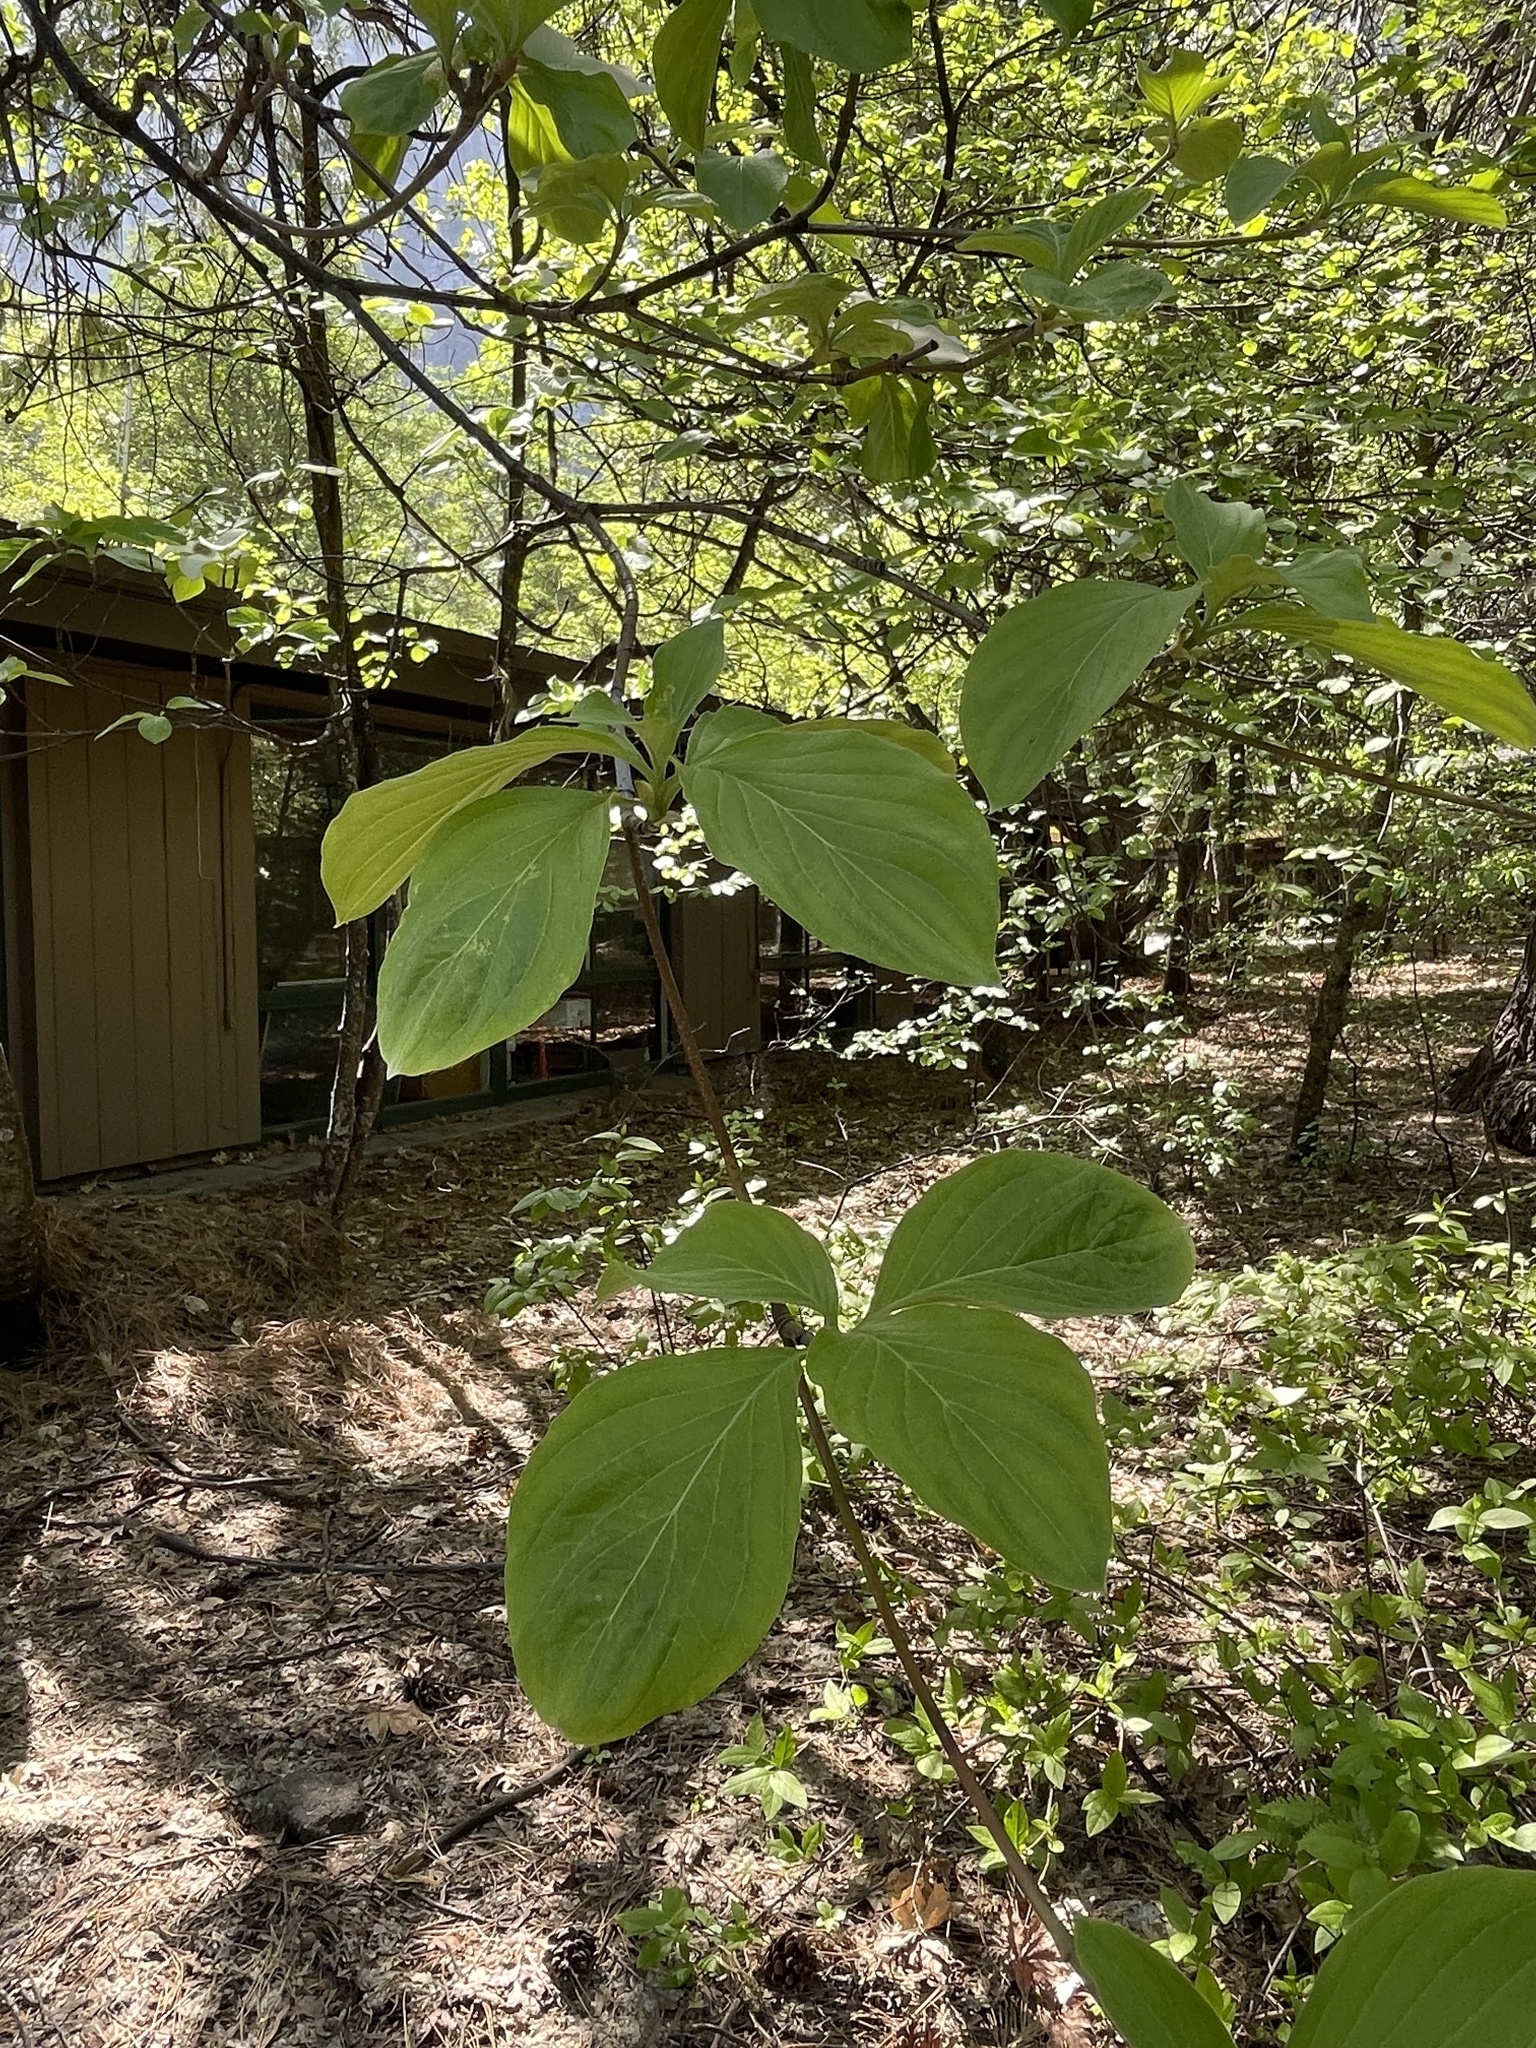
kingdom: Plantae
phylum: Tracheophyta
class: Magnoliopsida
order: Cornales
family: Cornaceae
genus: Cornus
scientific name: Cornus nuttallii
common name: Pacific dogwood
